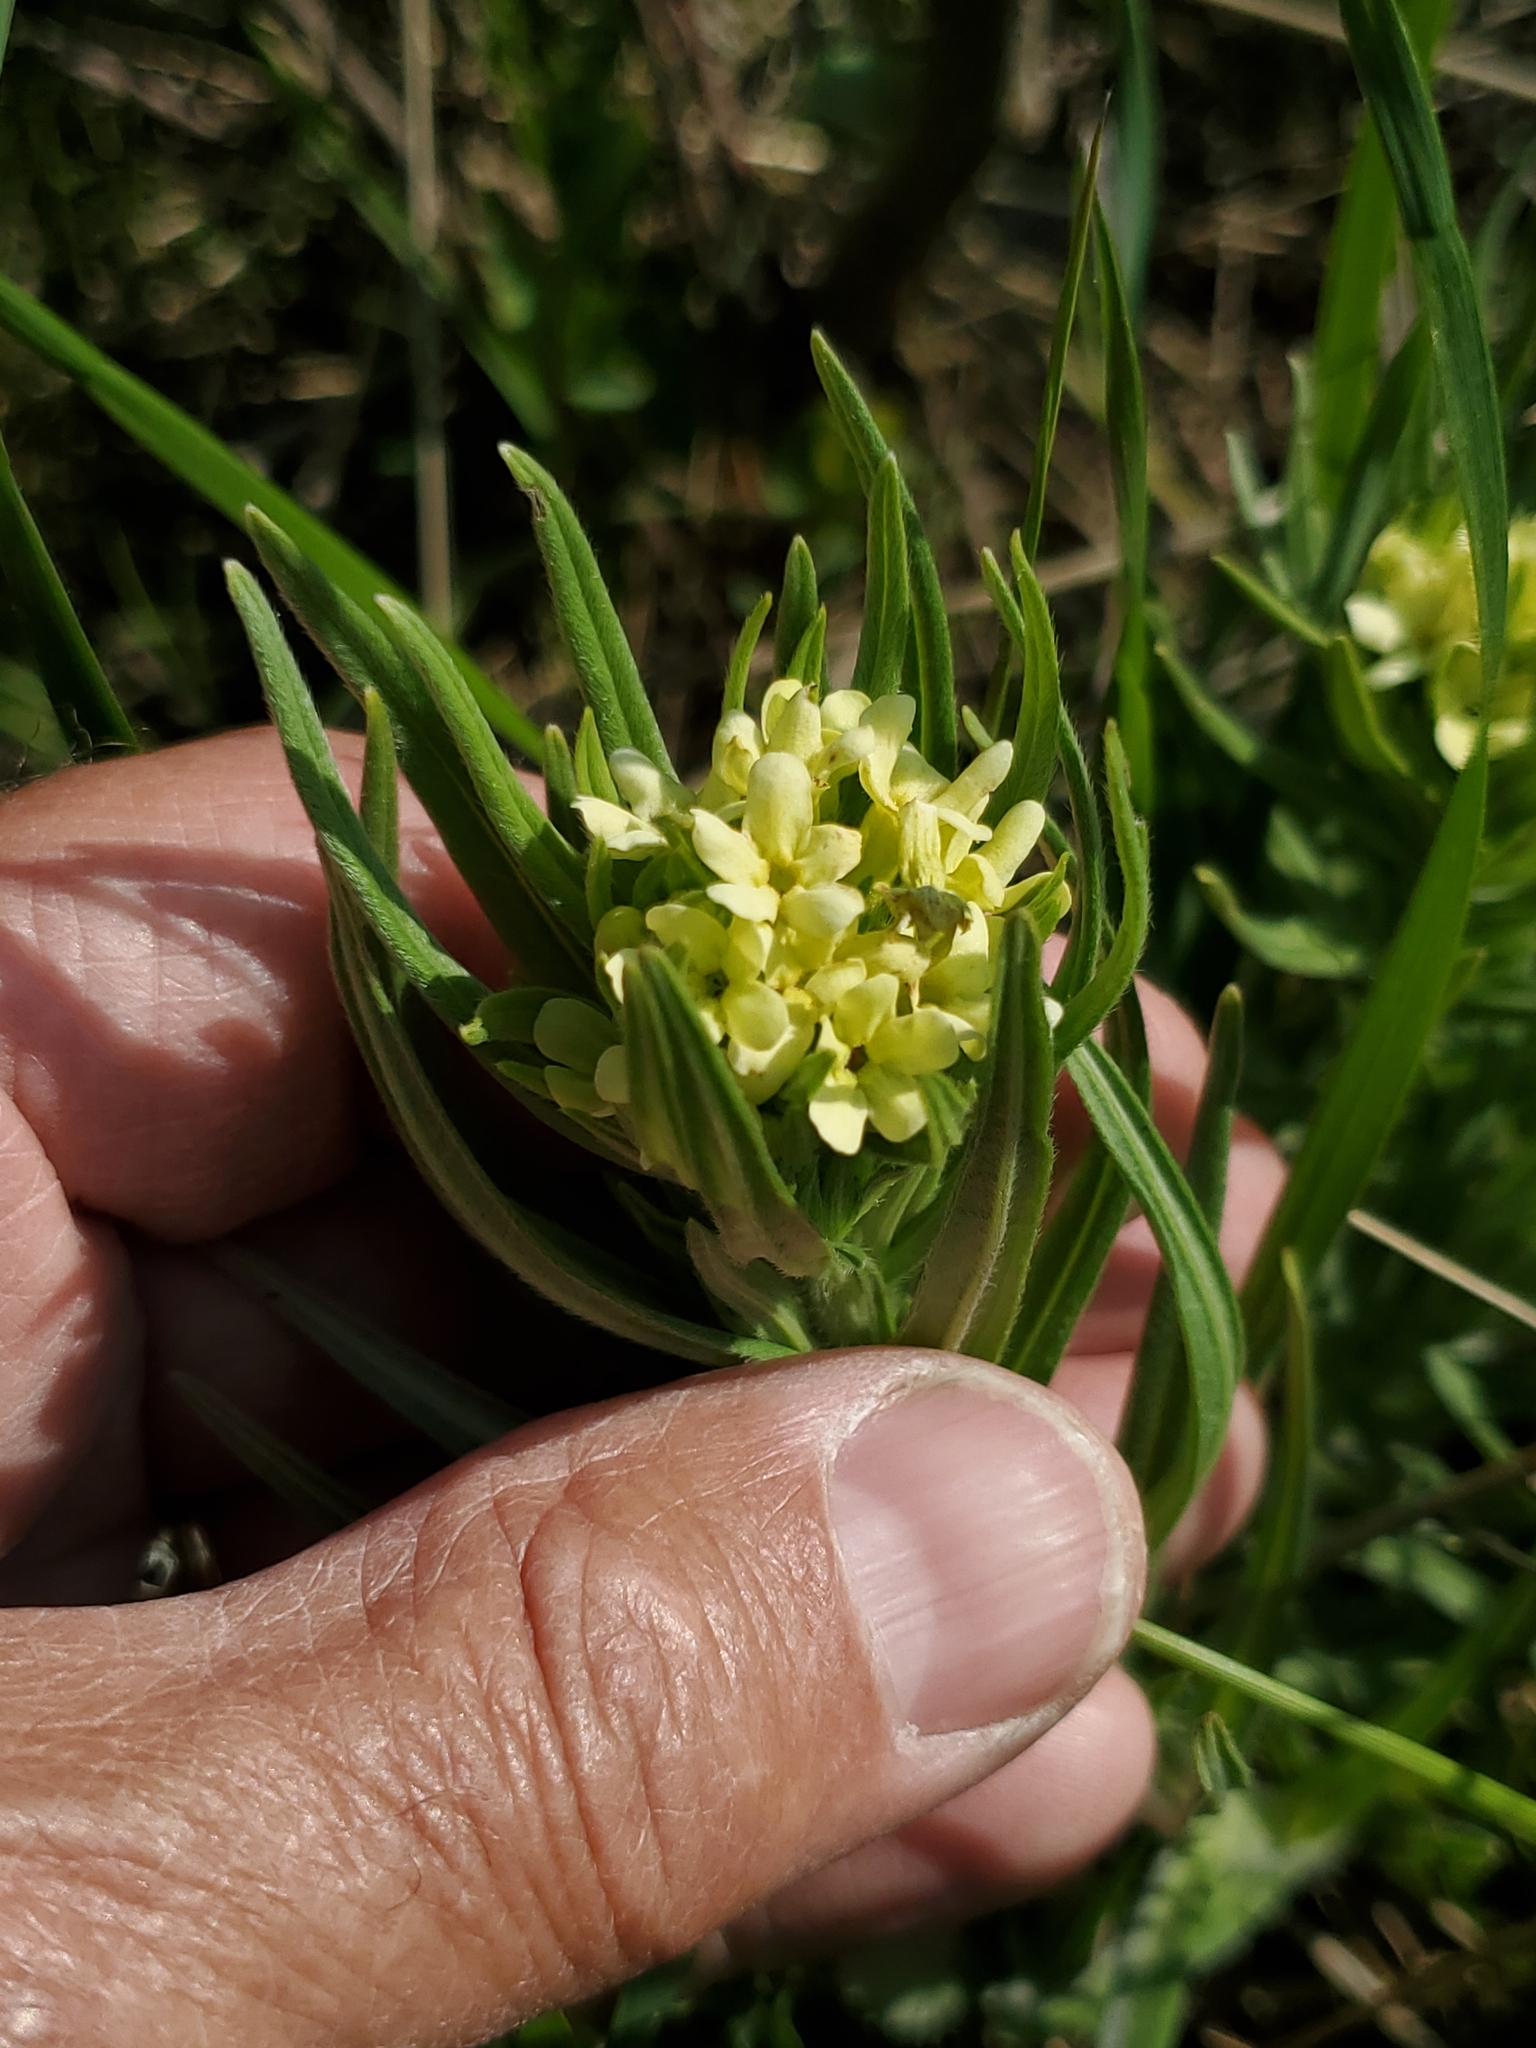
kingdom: Plantae
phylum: Tracheophyta
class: Magnoliopsida
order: Boraginales
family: Boraginaceae
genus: Lithospermum
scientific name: Lithospermum ruderale
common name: Western gromwell
